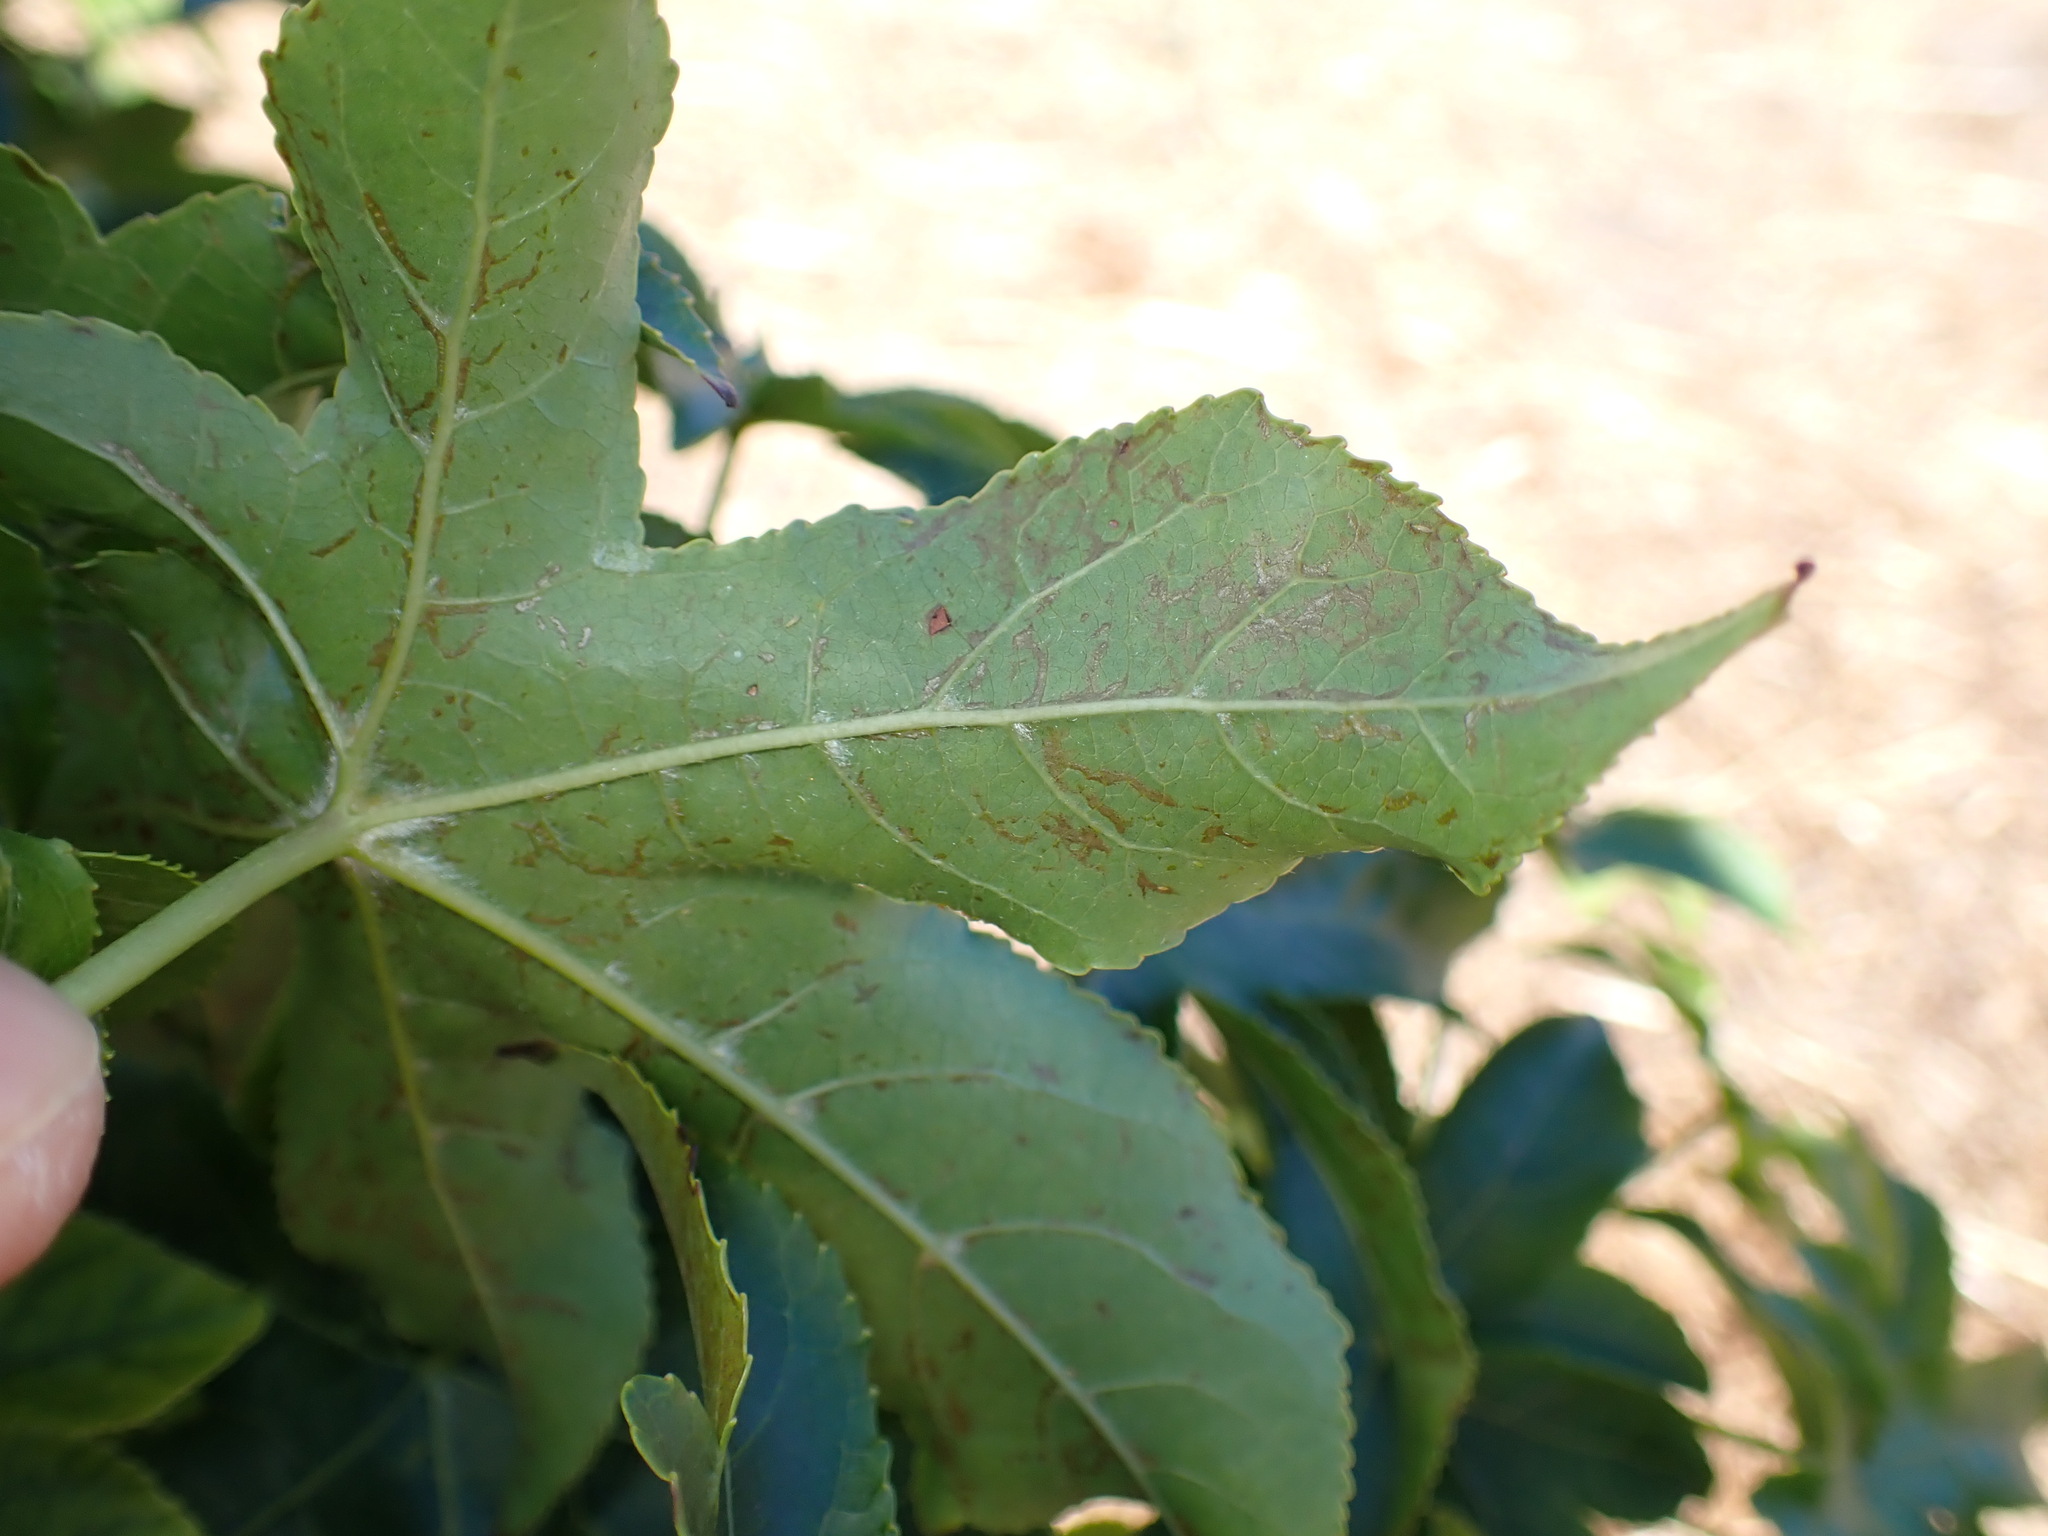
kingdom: Plantae
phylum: Tracheophyta
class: Magnoliopsida
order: Saxifragales
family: Altingiaceae
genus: Liquidambar
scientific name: Liquidambar styraciflua
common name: Sweet gum
